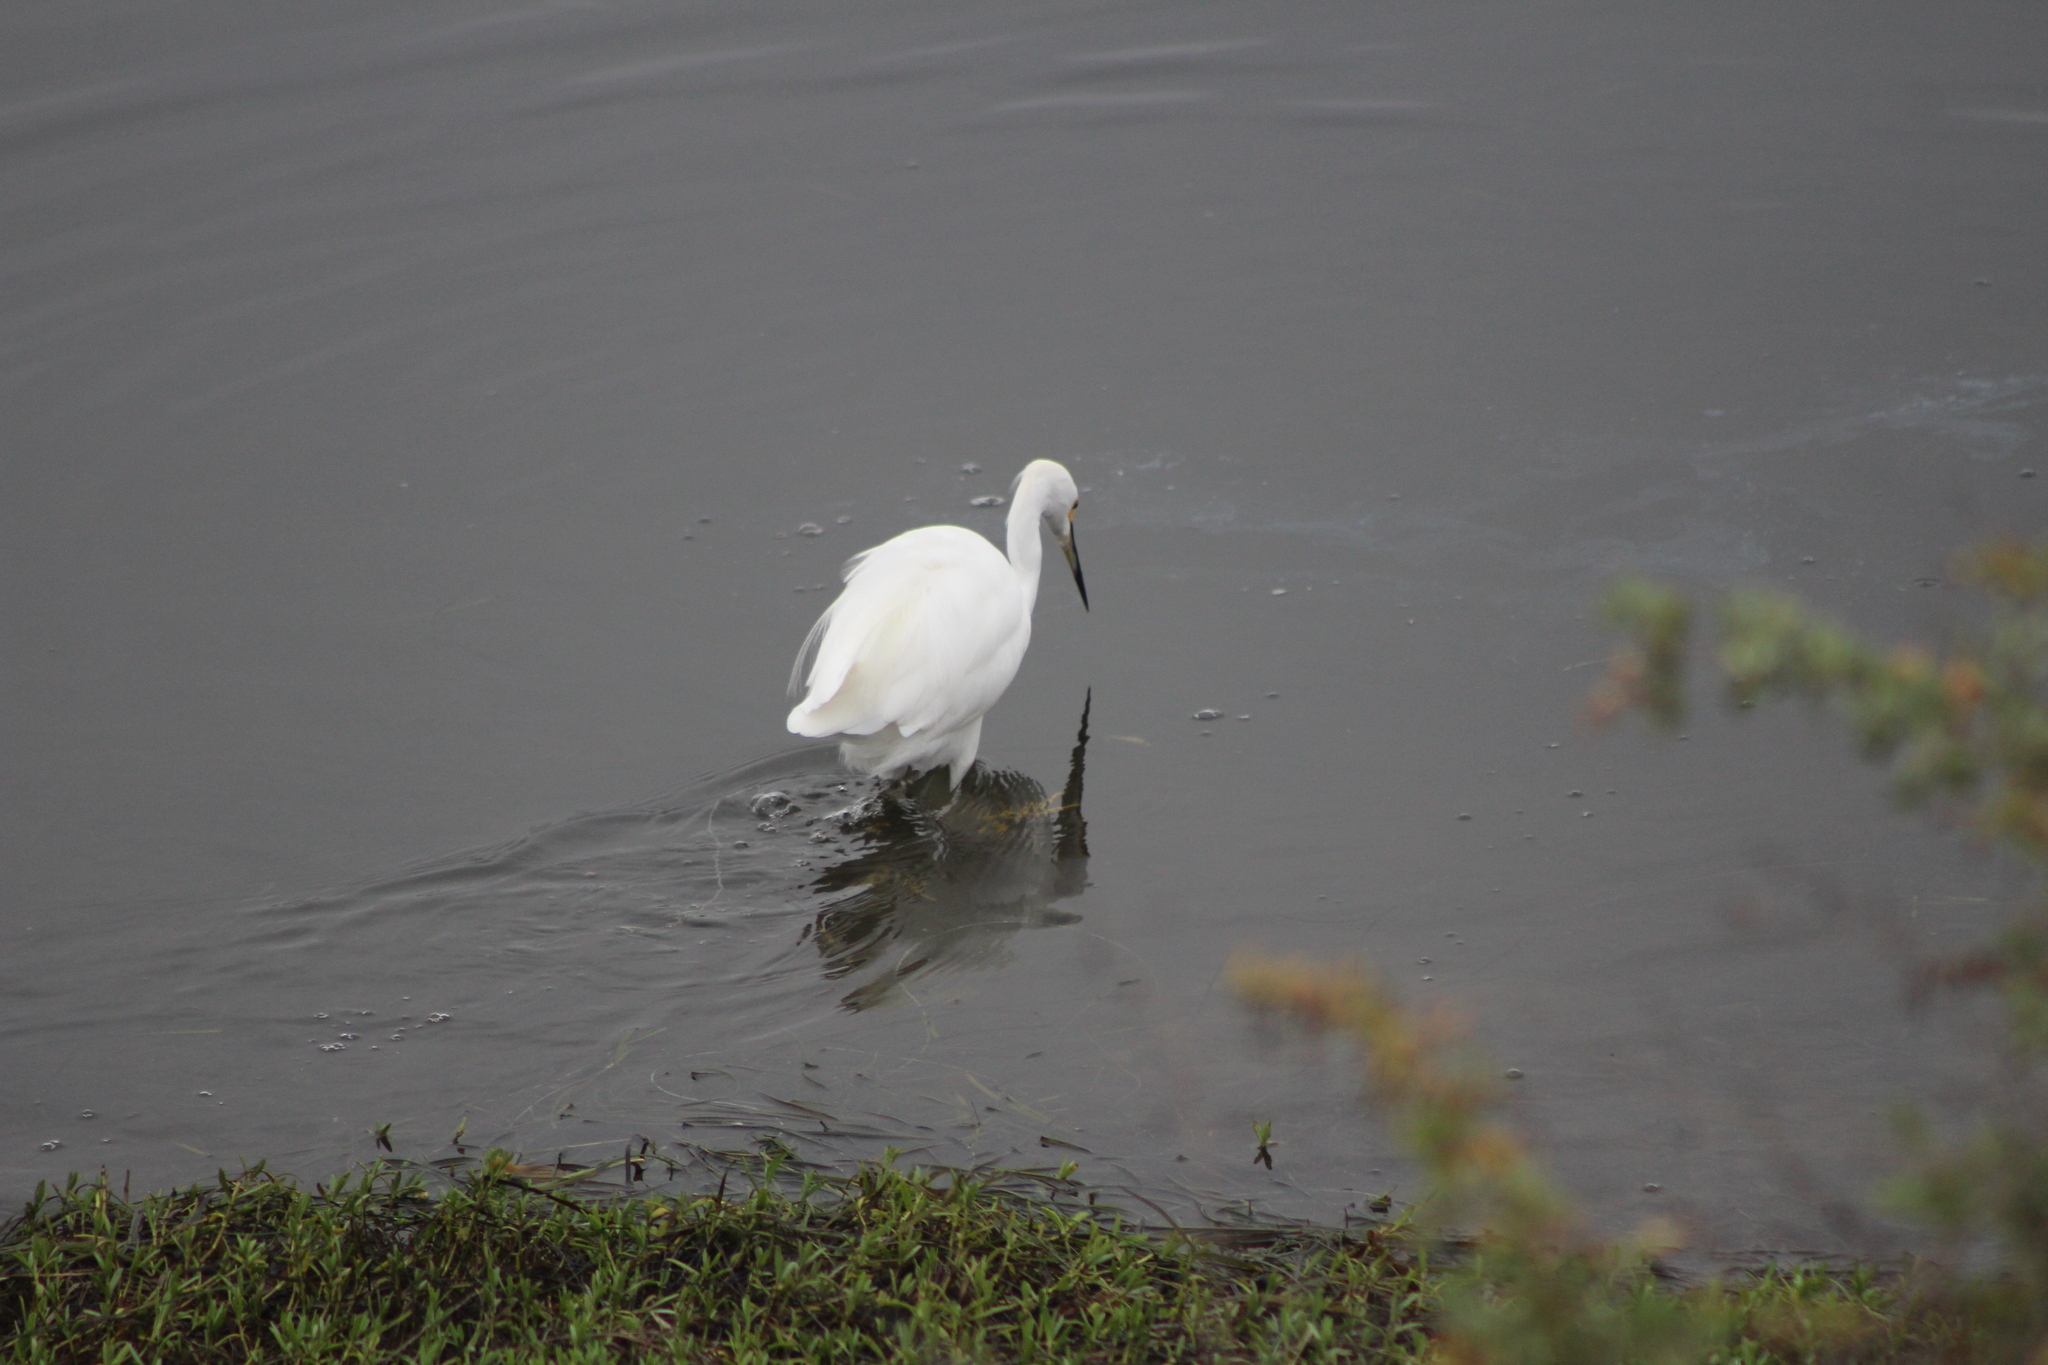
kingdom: Animalia
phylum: Chordata
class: Aves
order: Pelecaniformes
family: Ardeidae
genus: Egretta
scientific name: Egretta thula
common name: Snowy egret
